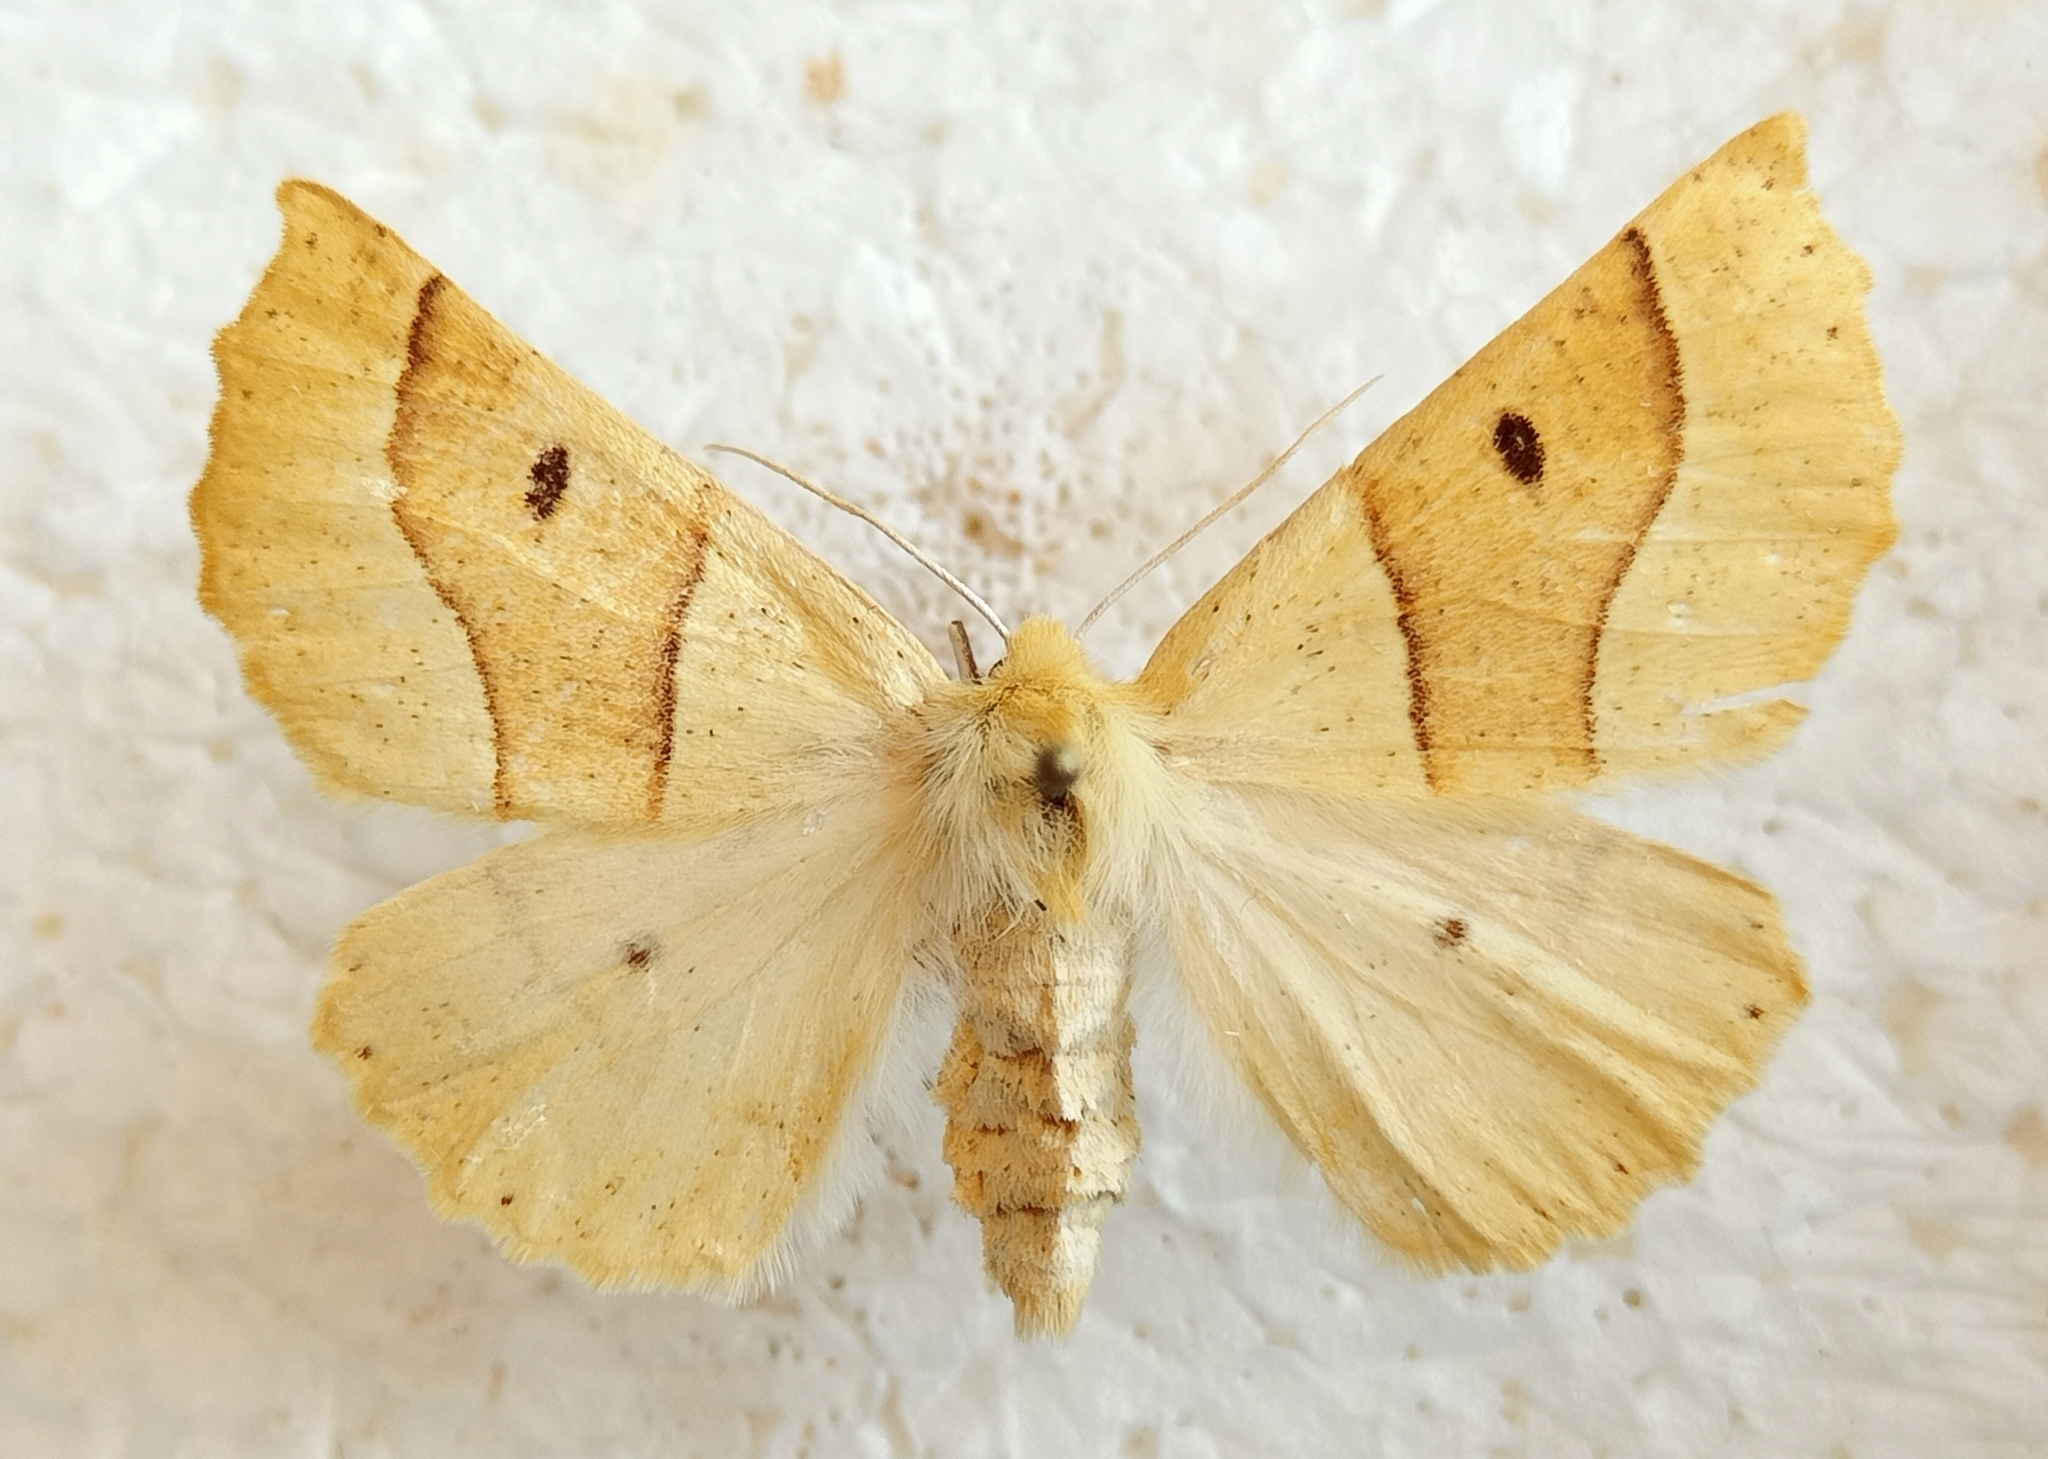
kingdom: Animalia
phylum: Arthropoda
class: Insecta
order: Lepidoptera
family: Geometridae
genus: Crocallis
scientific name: Crocallis elinguaria
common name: Scalloped oak
